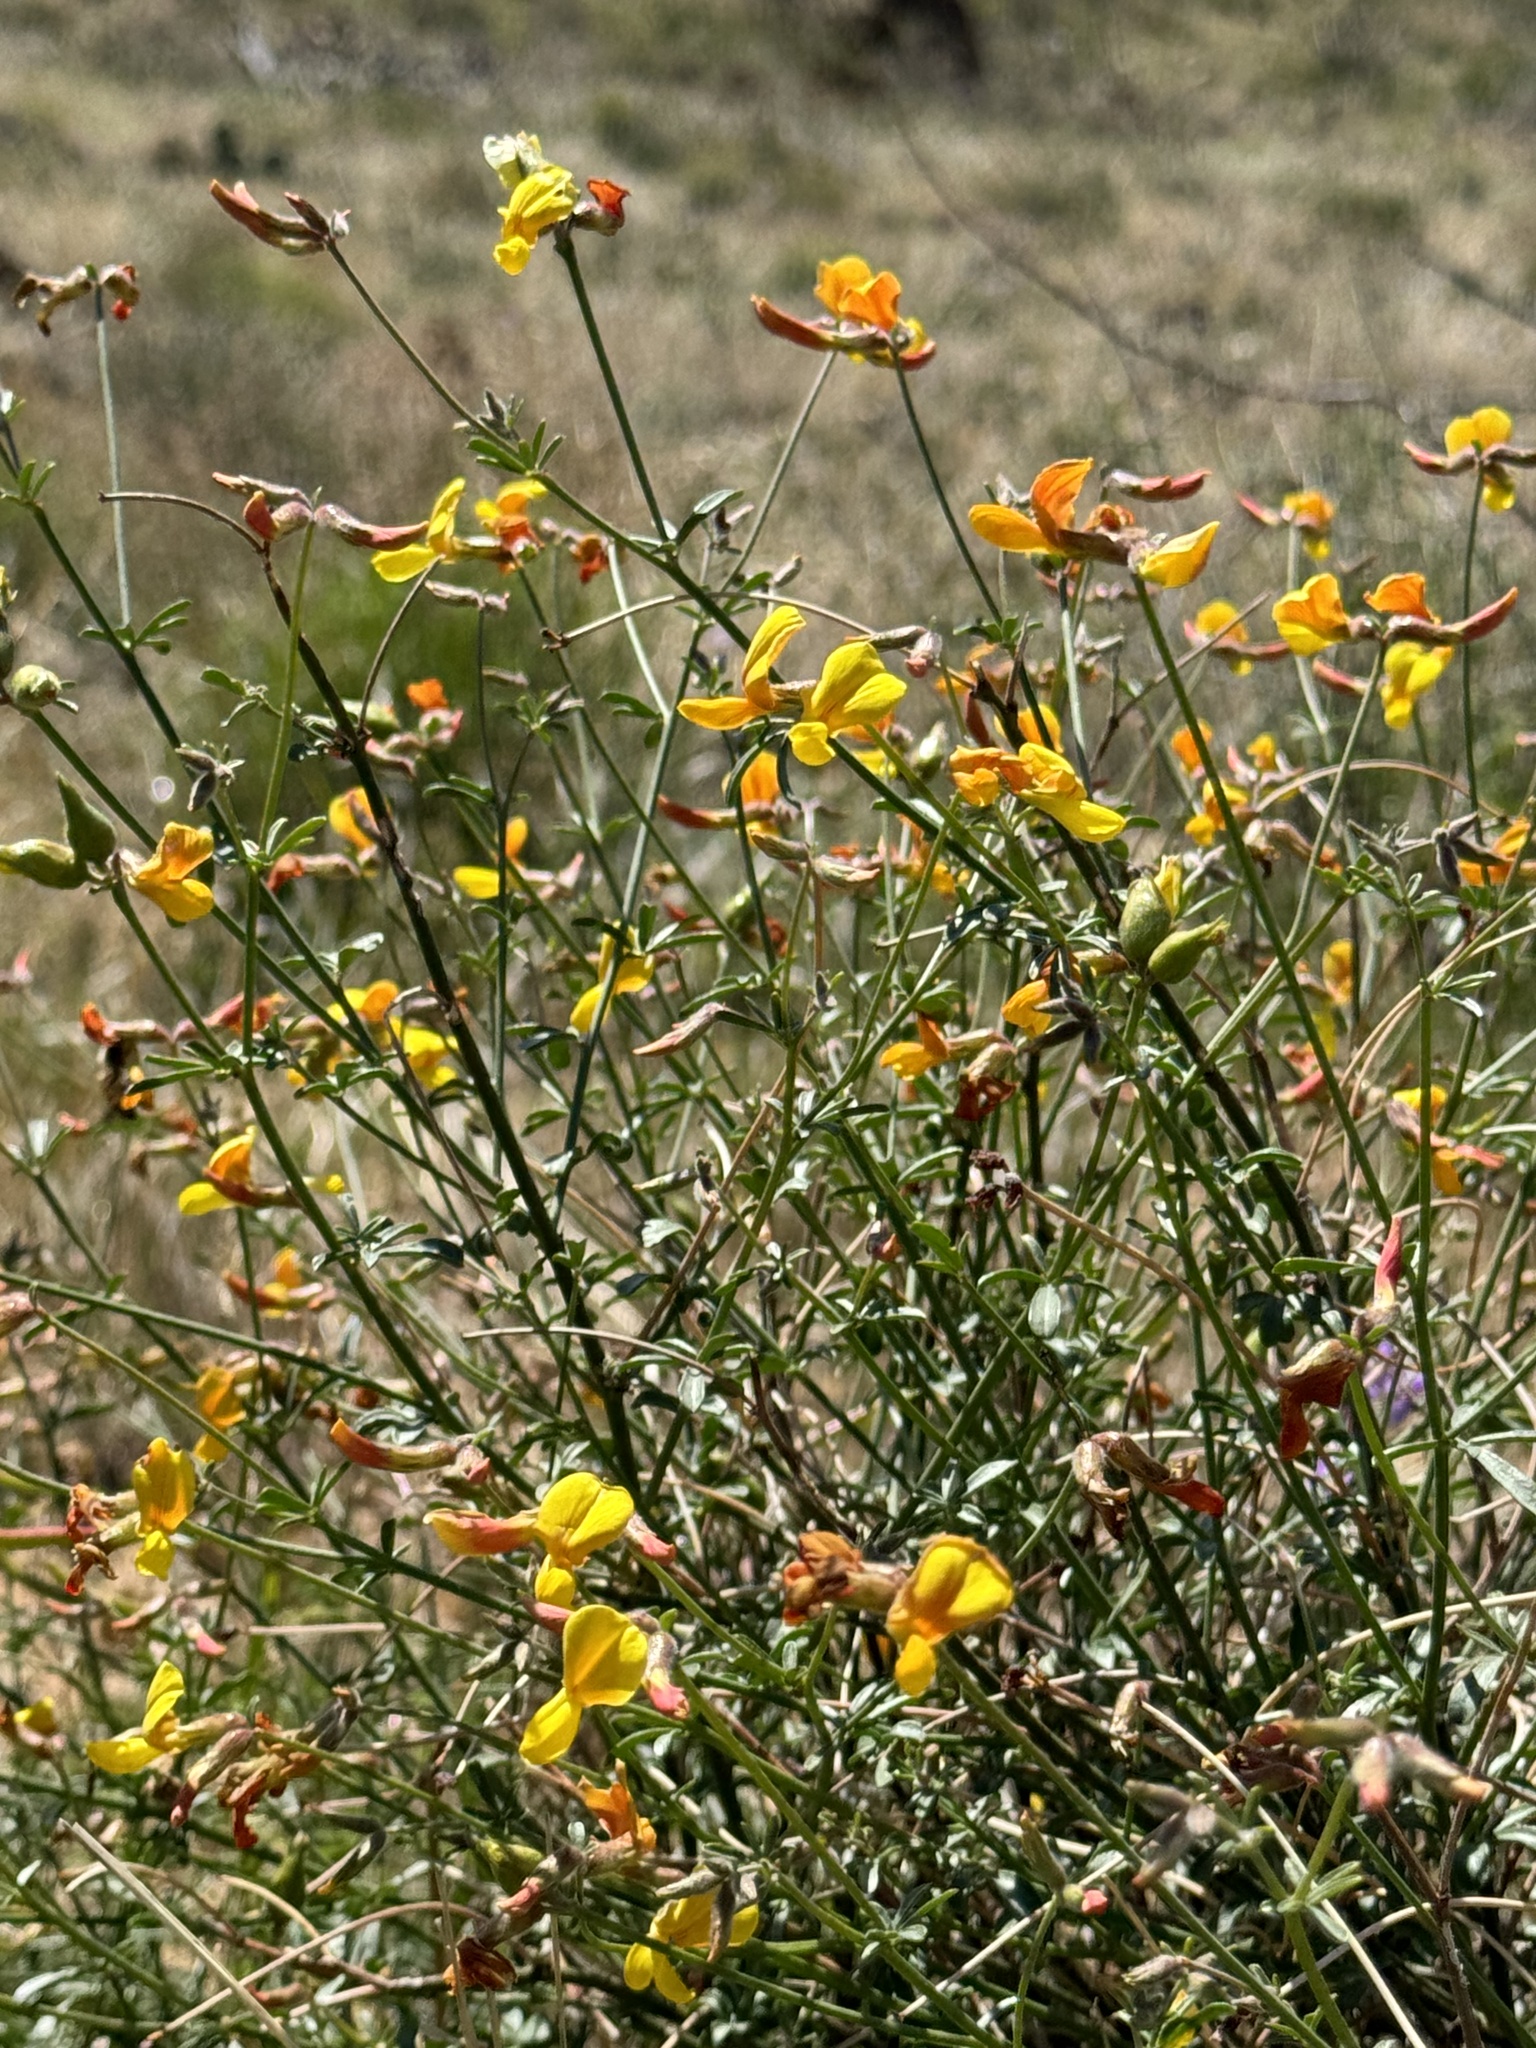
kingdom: Plantae
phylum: Tracheophyta
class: Magnoliopsida
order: Fabales
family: Fabaceae
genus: Acmispon
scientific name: Acmispon rigidus
